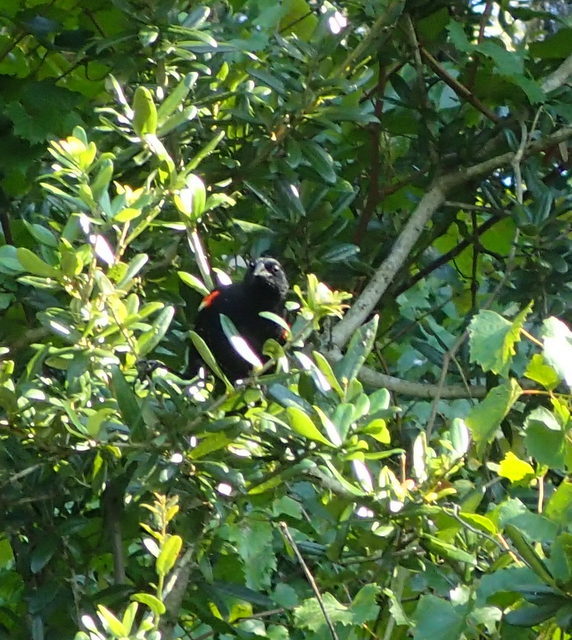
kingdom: Animalia
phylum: Chordata
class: Aves
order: Passeriformes
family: Icteridae
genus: Agelaius
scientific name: Agelaius phoeniceus
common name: Red-winged blackbird
